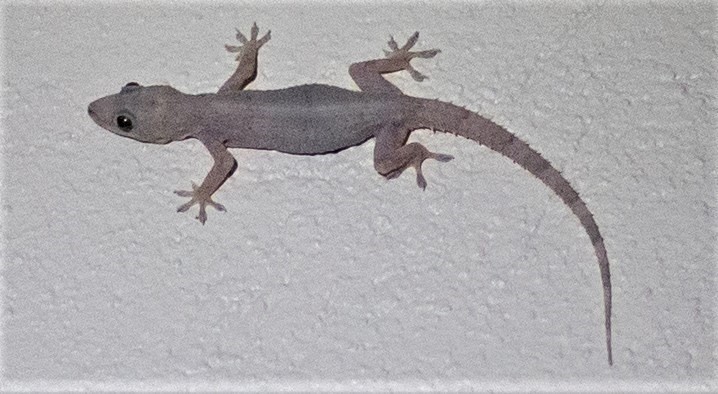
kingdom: Animalia
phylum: Chordata
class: Squamata
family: Gekkonidae
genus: Hemidactylus
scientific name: Hemidactylus mabouia
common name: House gecko
